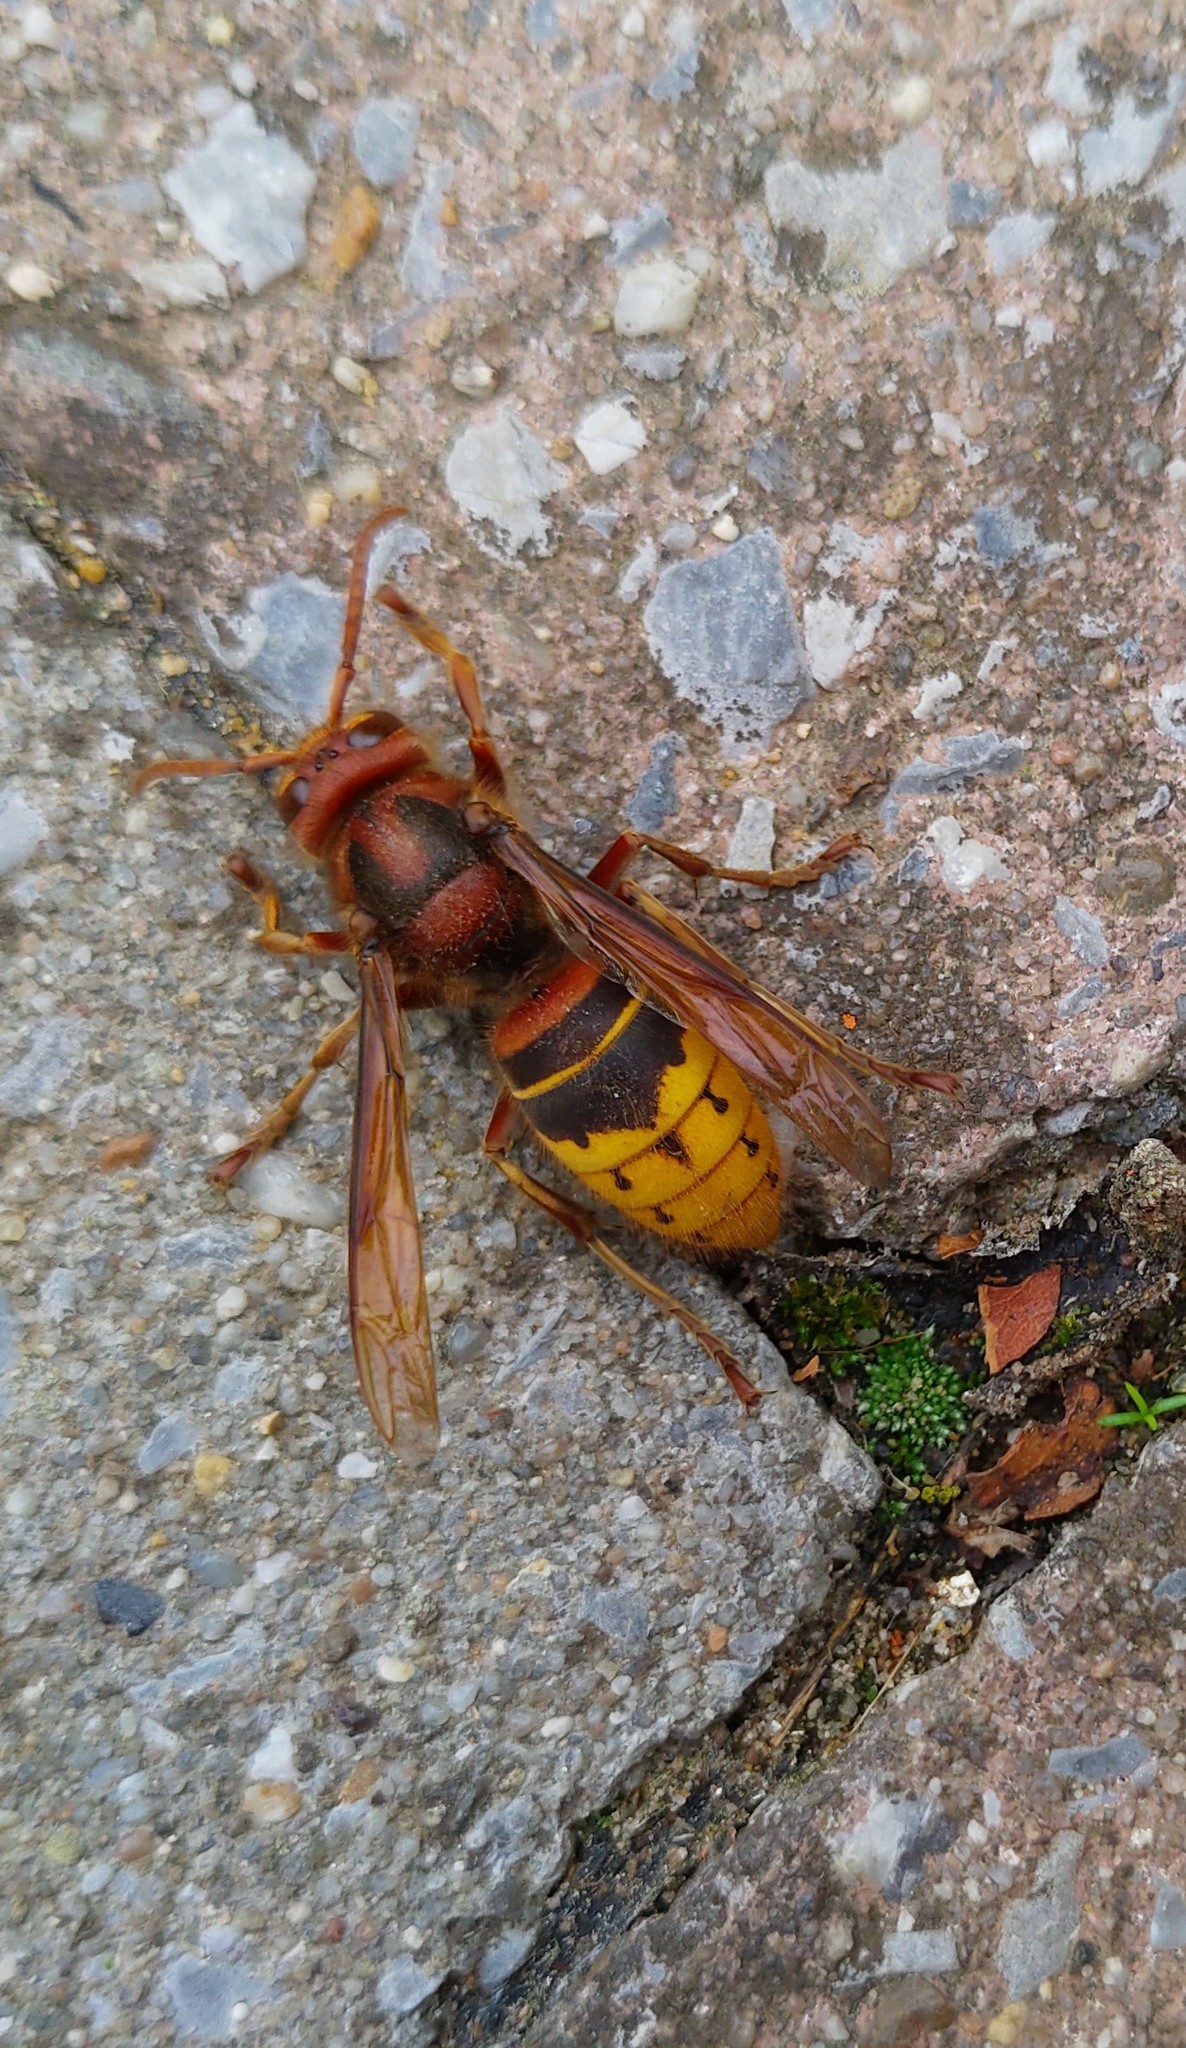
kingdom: Animalia
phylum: Arthropoda
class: Insecta
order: Hymenoptera
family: Vespidae
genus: Vespa
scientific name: Vespa crabro
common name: Hornet
